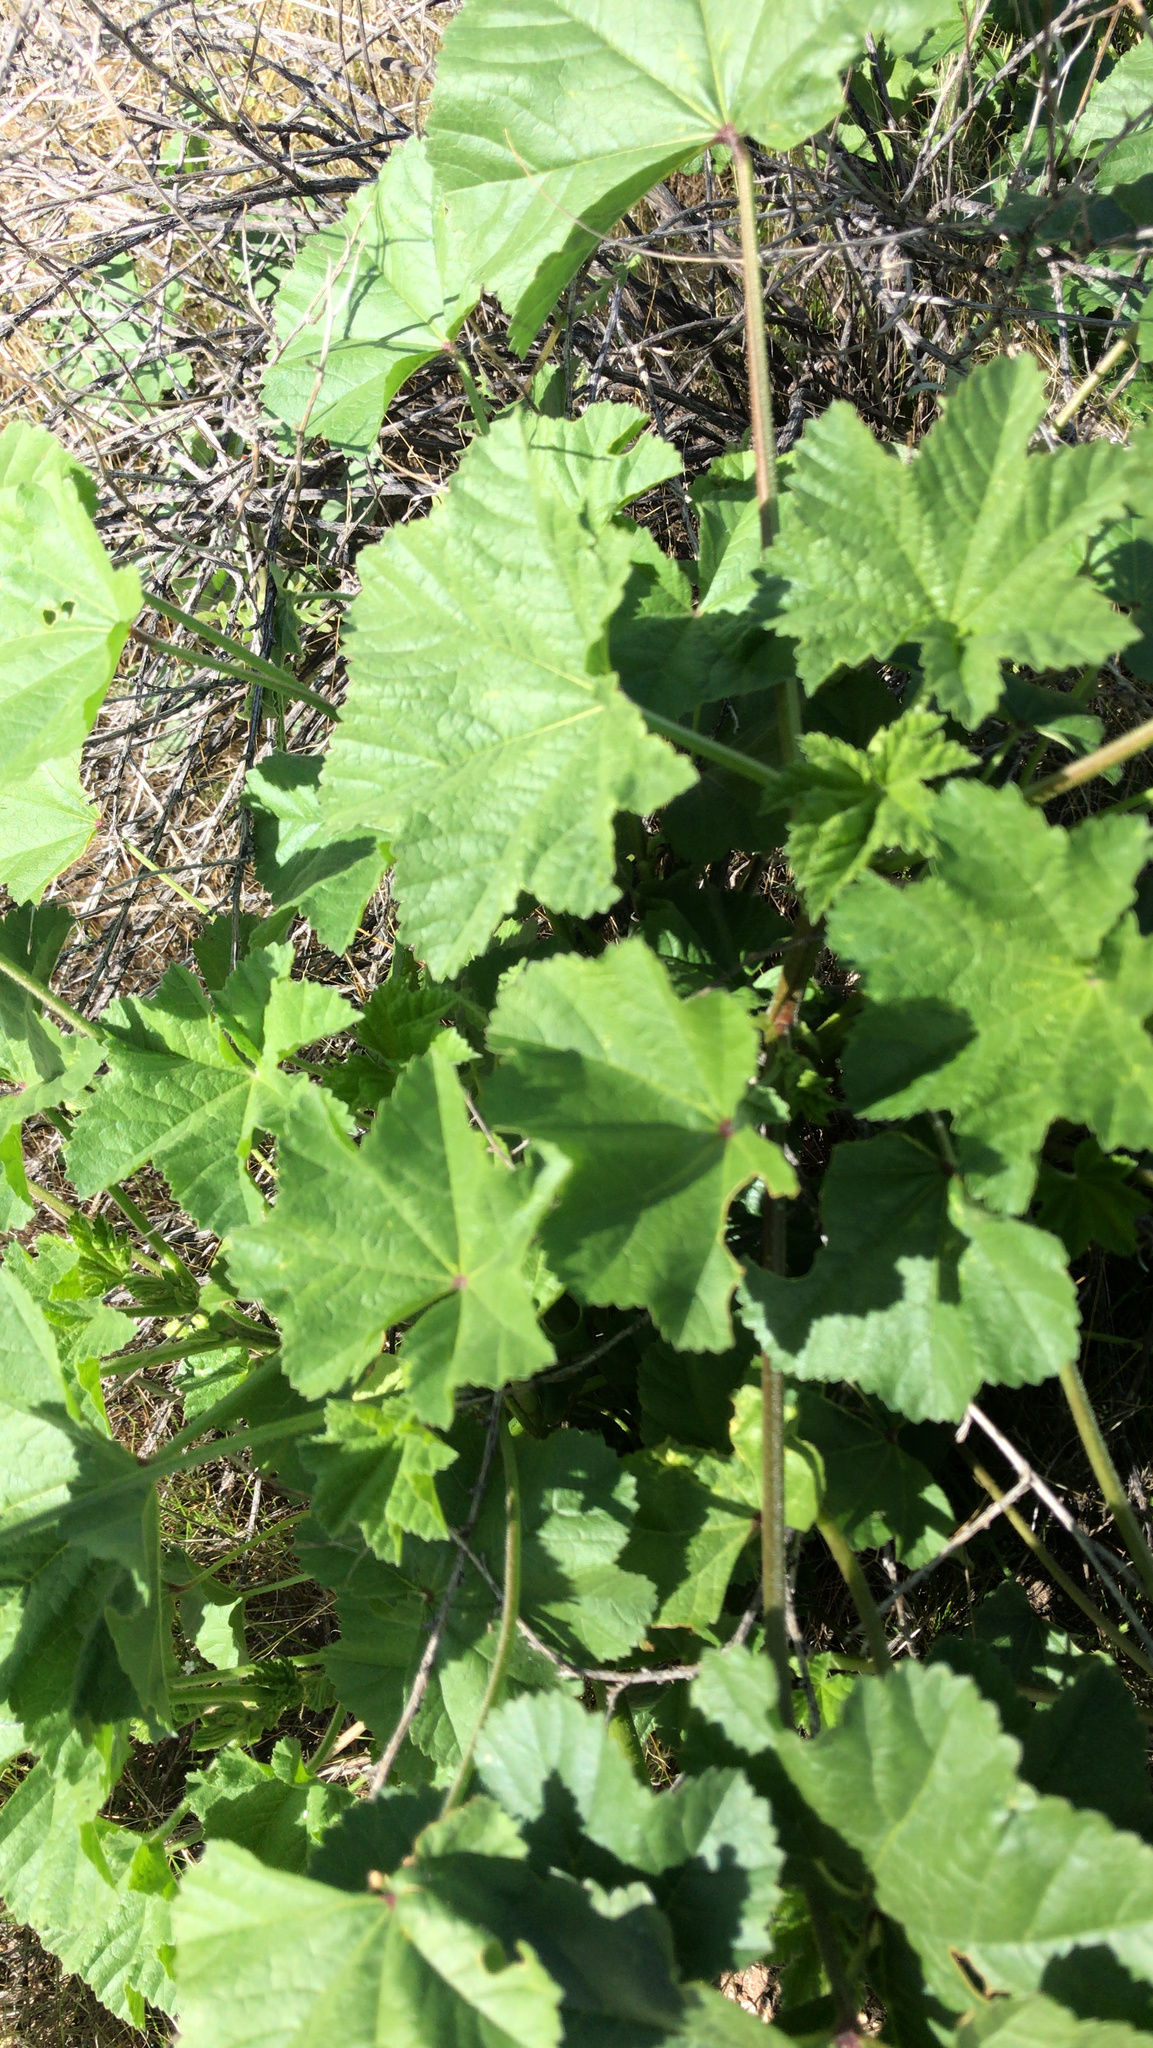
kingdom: Plantae
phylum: Tracheophyta
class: Magnoliopsida
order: Malvales
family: Malvaceae
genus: Malva
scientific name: Malva parviflora
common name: Least mallow
